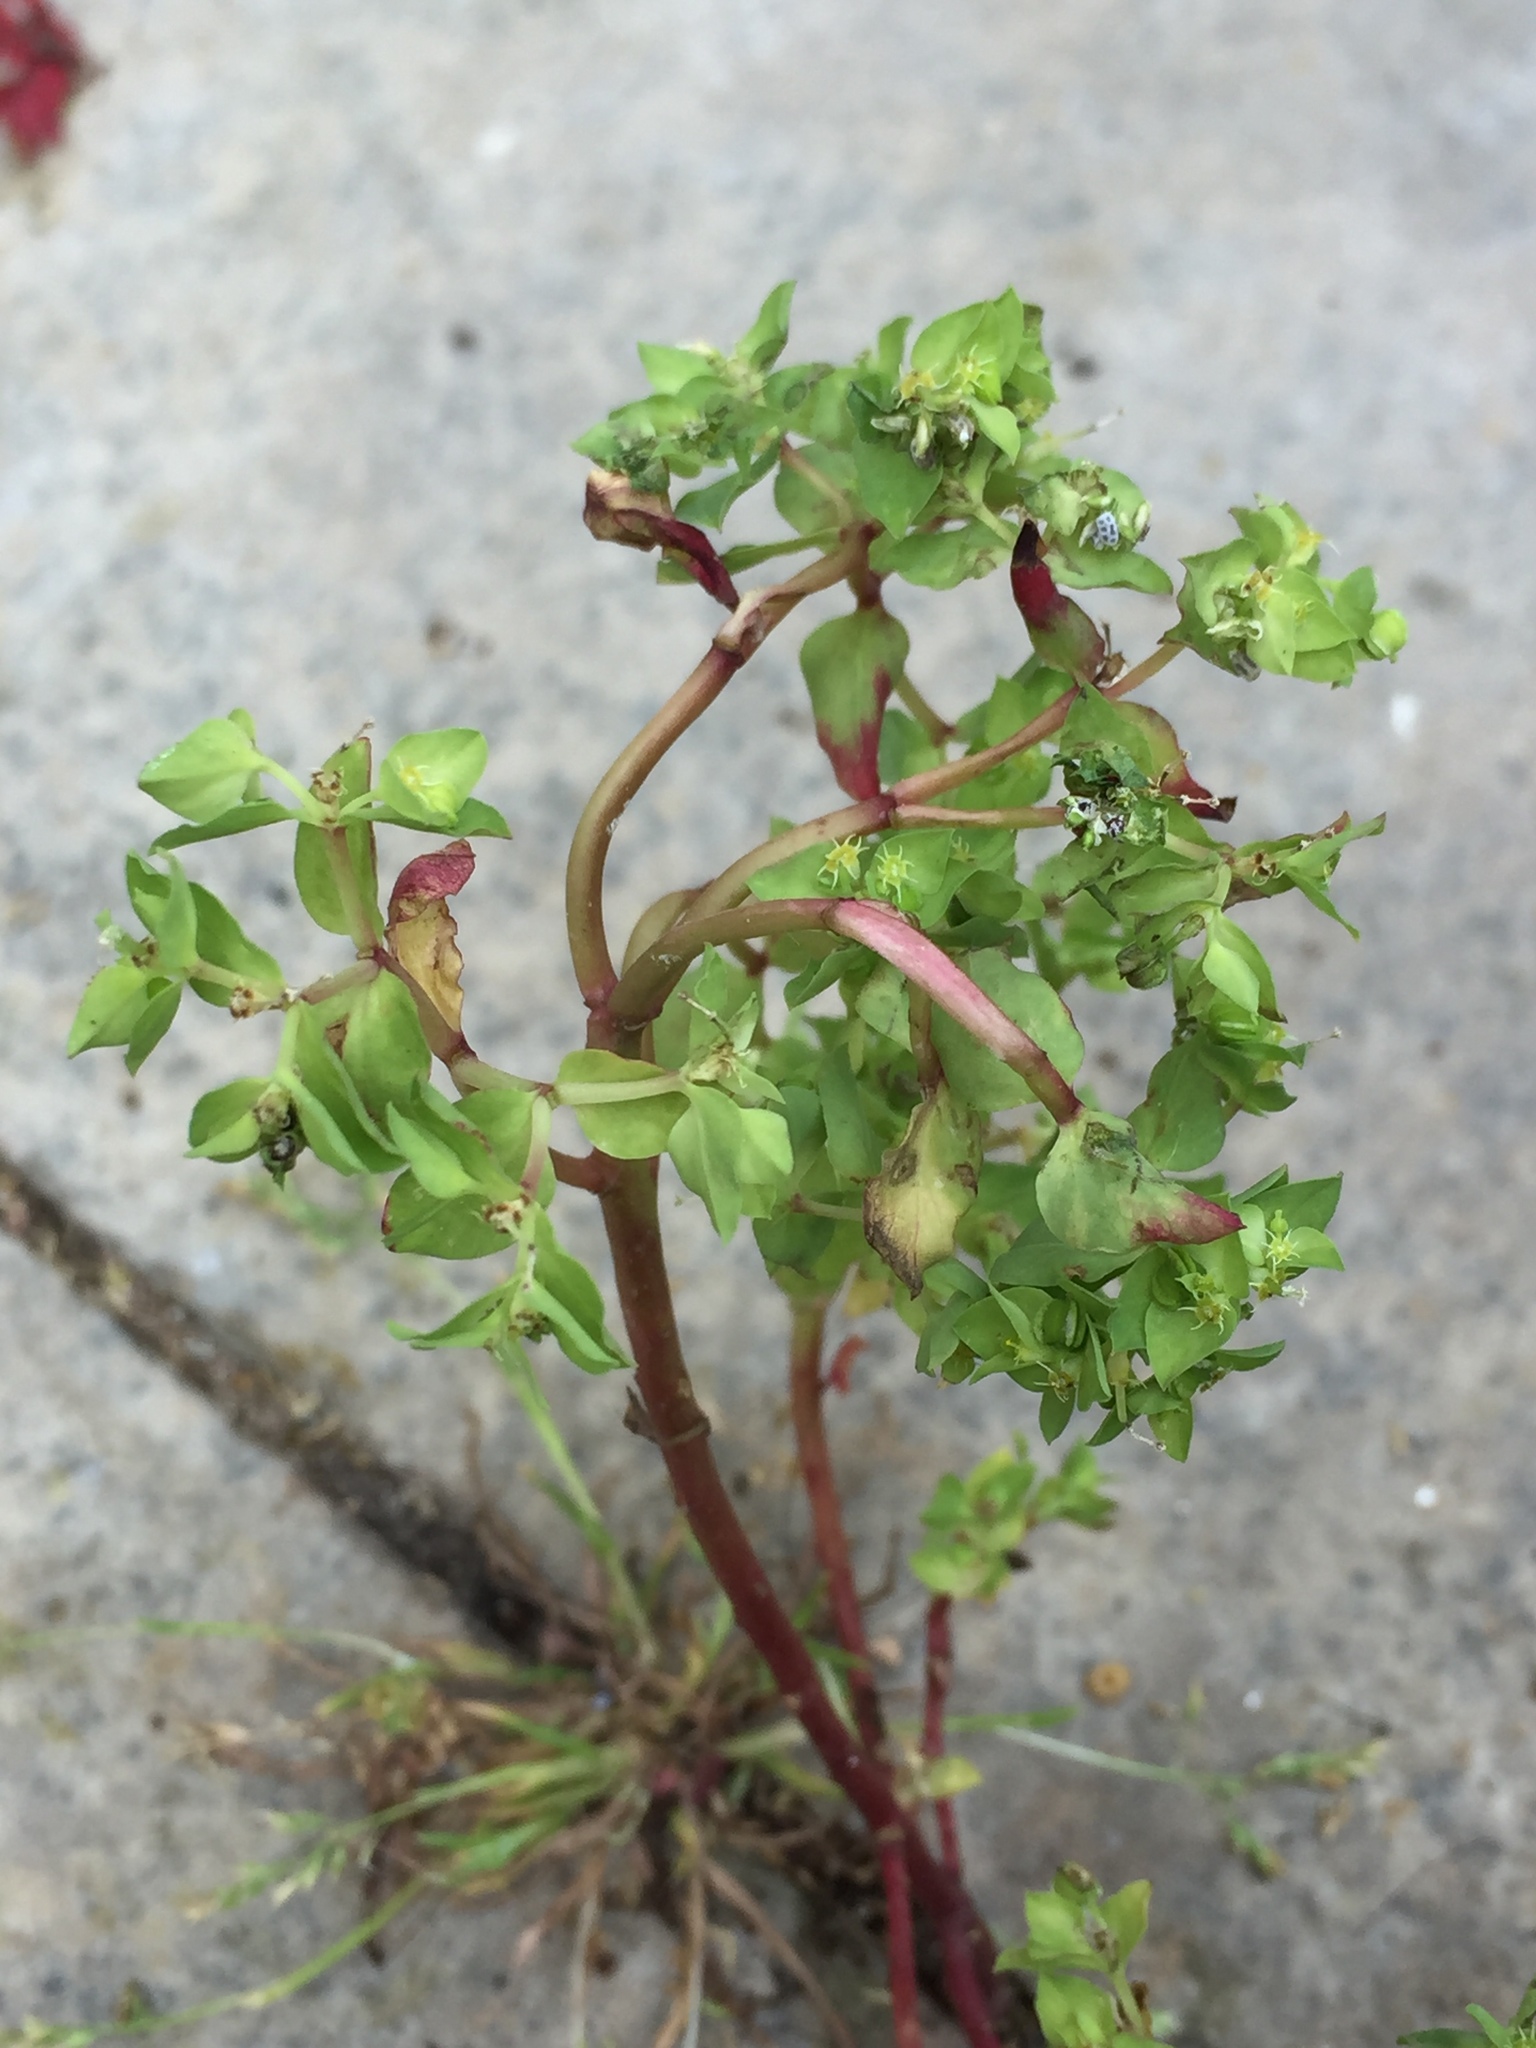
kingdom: Plantae
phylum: Tracheophyta
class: Magnoliopsida
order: Malpighiales
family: Euphorbiaceae
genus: Euphorbia
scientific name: Euphorbia peplus
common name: Petty spurge
